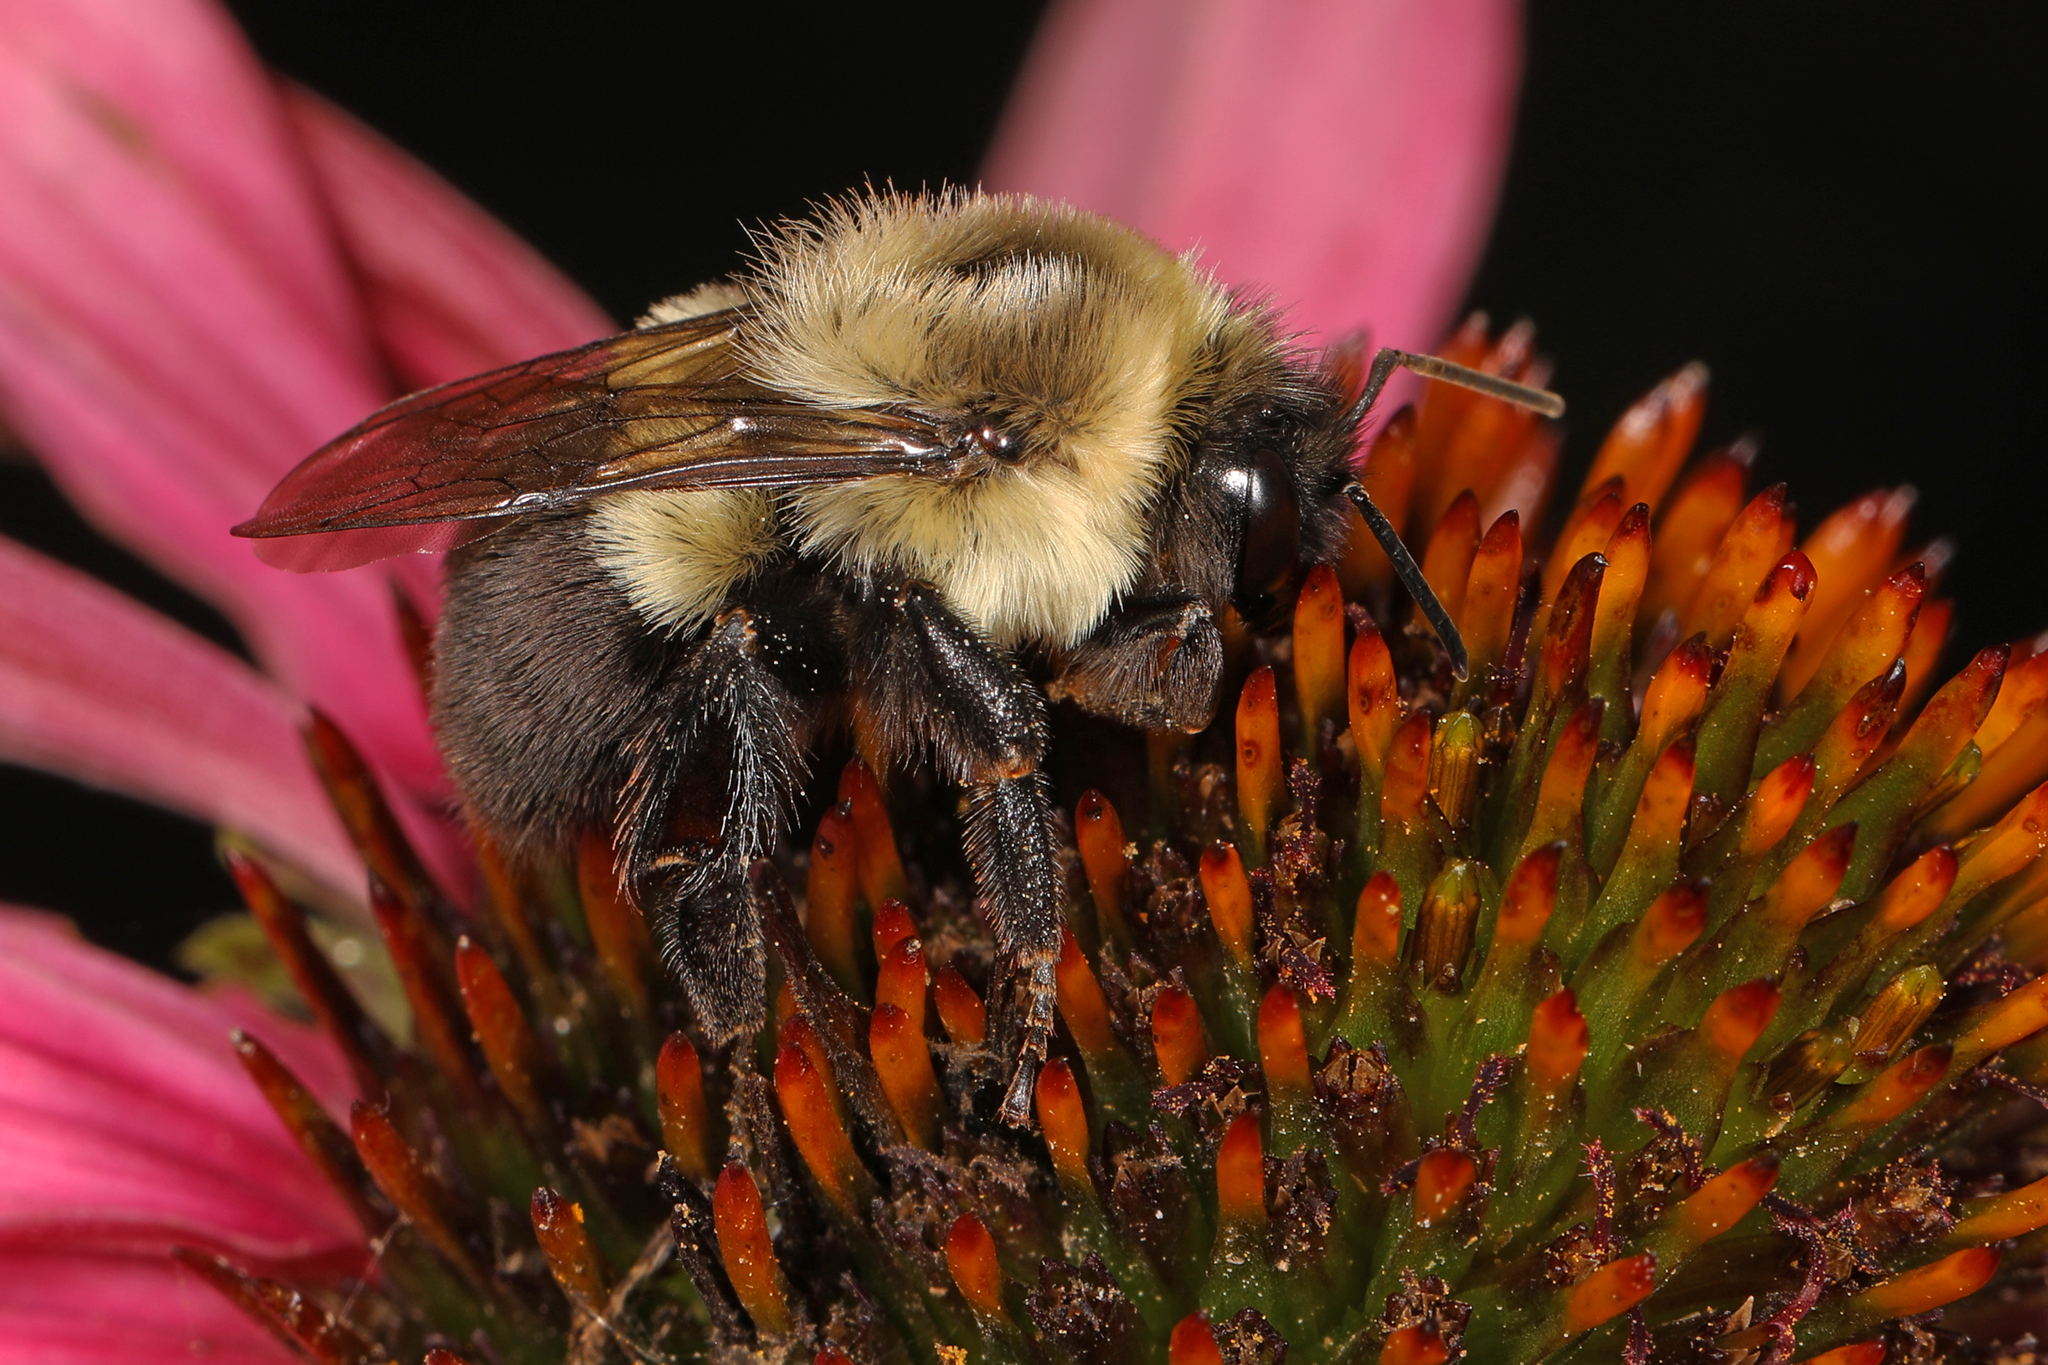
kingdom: Animalia
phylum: Arthropoda
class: Insecta
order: Hymenoptera
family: Apidae
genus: Bombus
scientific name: Bombus impatiens
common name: Common eastern bumble bee
